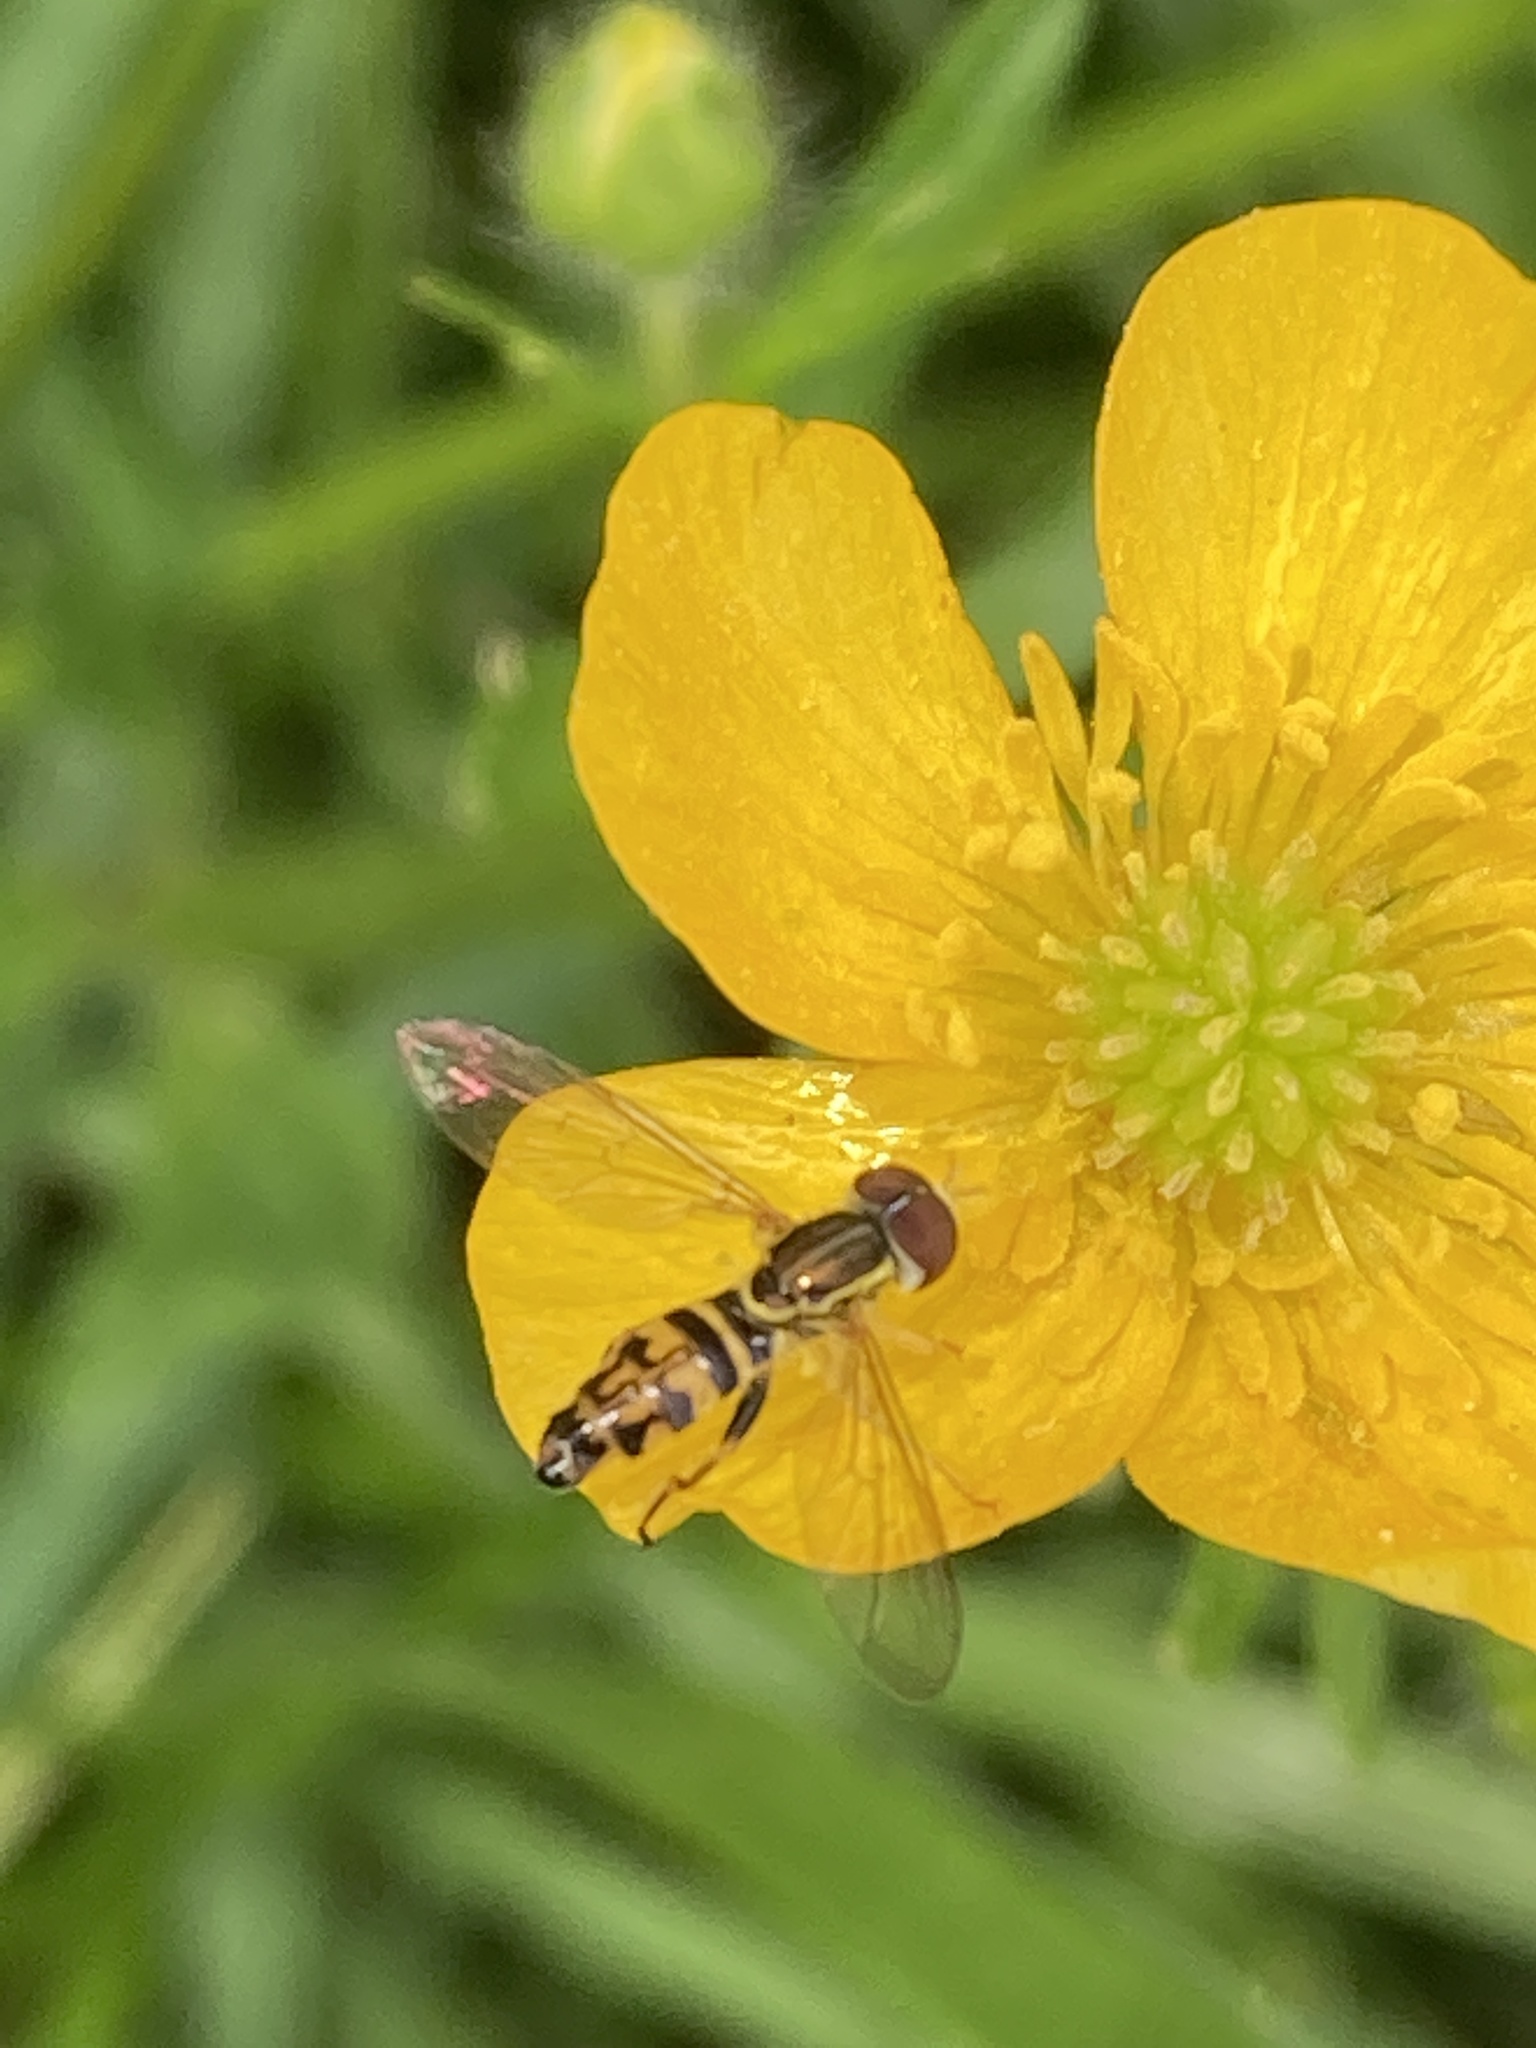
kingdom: Animalia
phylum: Arthropoda
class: Insecta
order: Diptera
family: Syrphidae
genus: Toxomerus
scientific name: Toxomerus geminatus
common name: Eastern calligrapher
